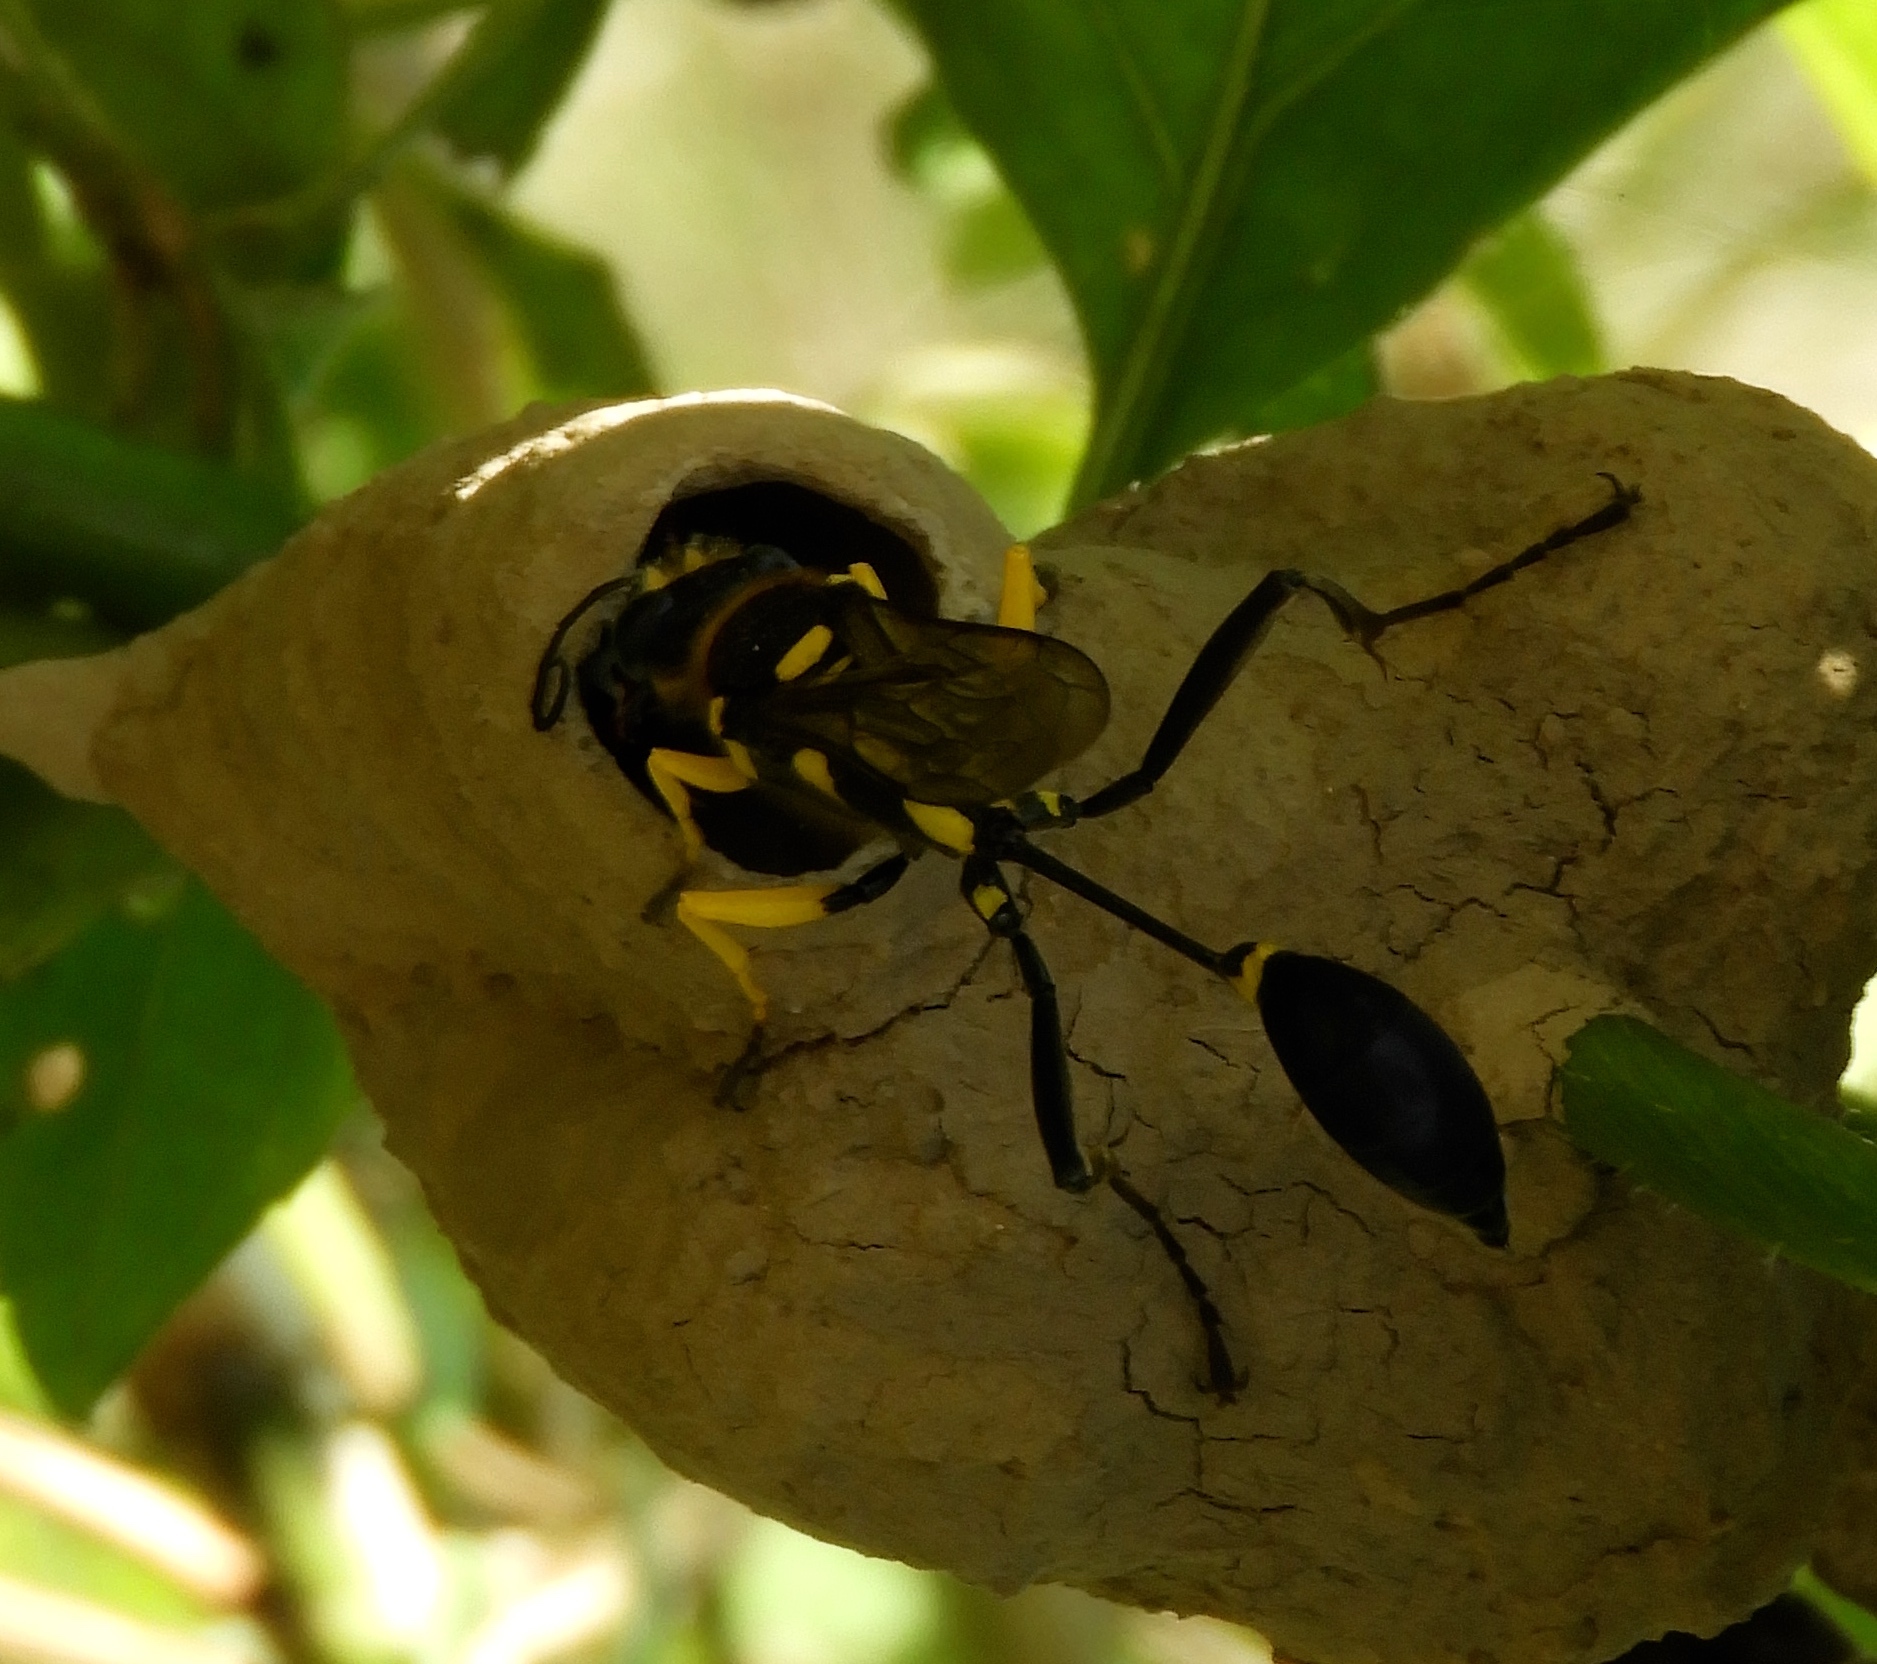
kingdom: Animalia
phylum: Arthropoda
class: Insecta
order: Hymenoptera
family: Sphecidae
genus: Sceliphron
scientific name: Sceliphron fistularium
